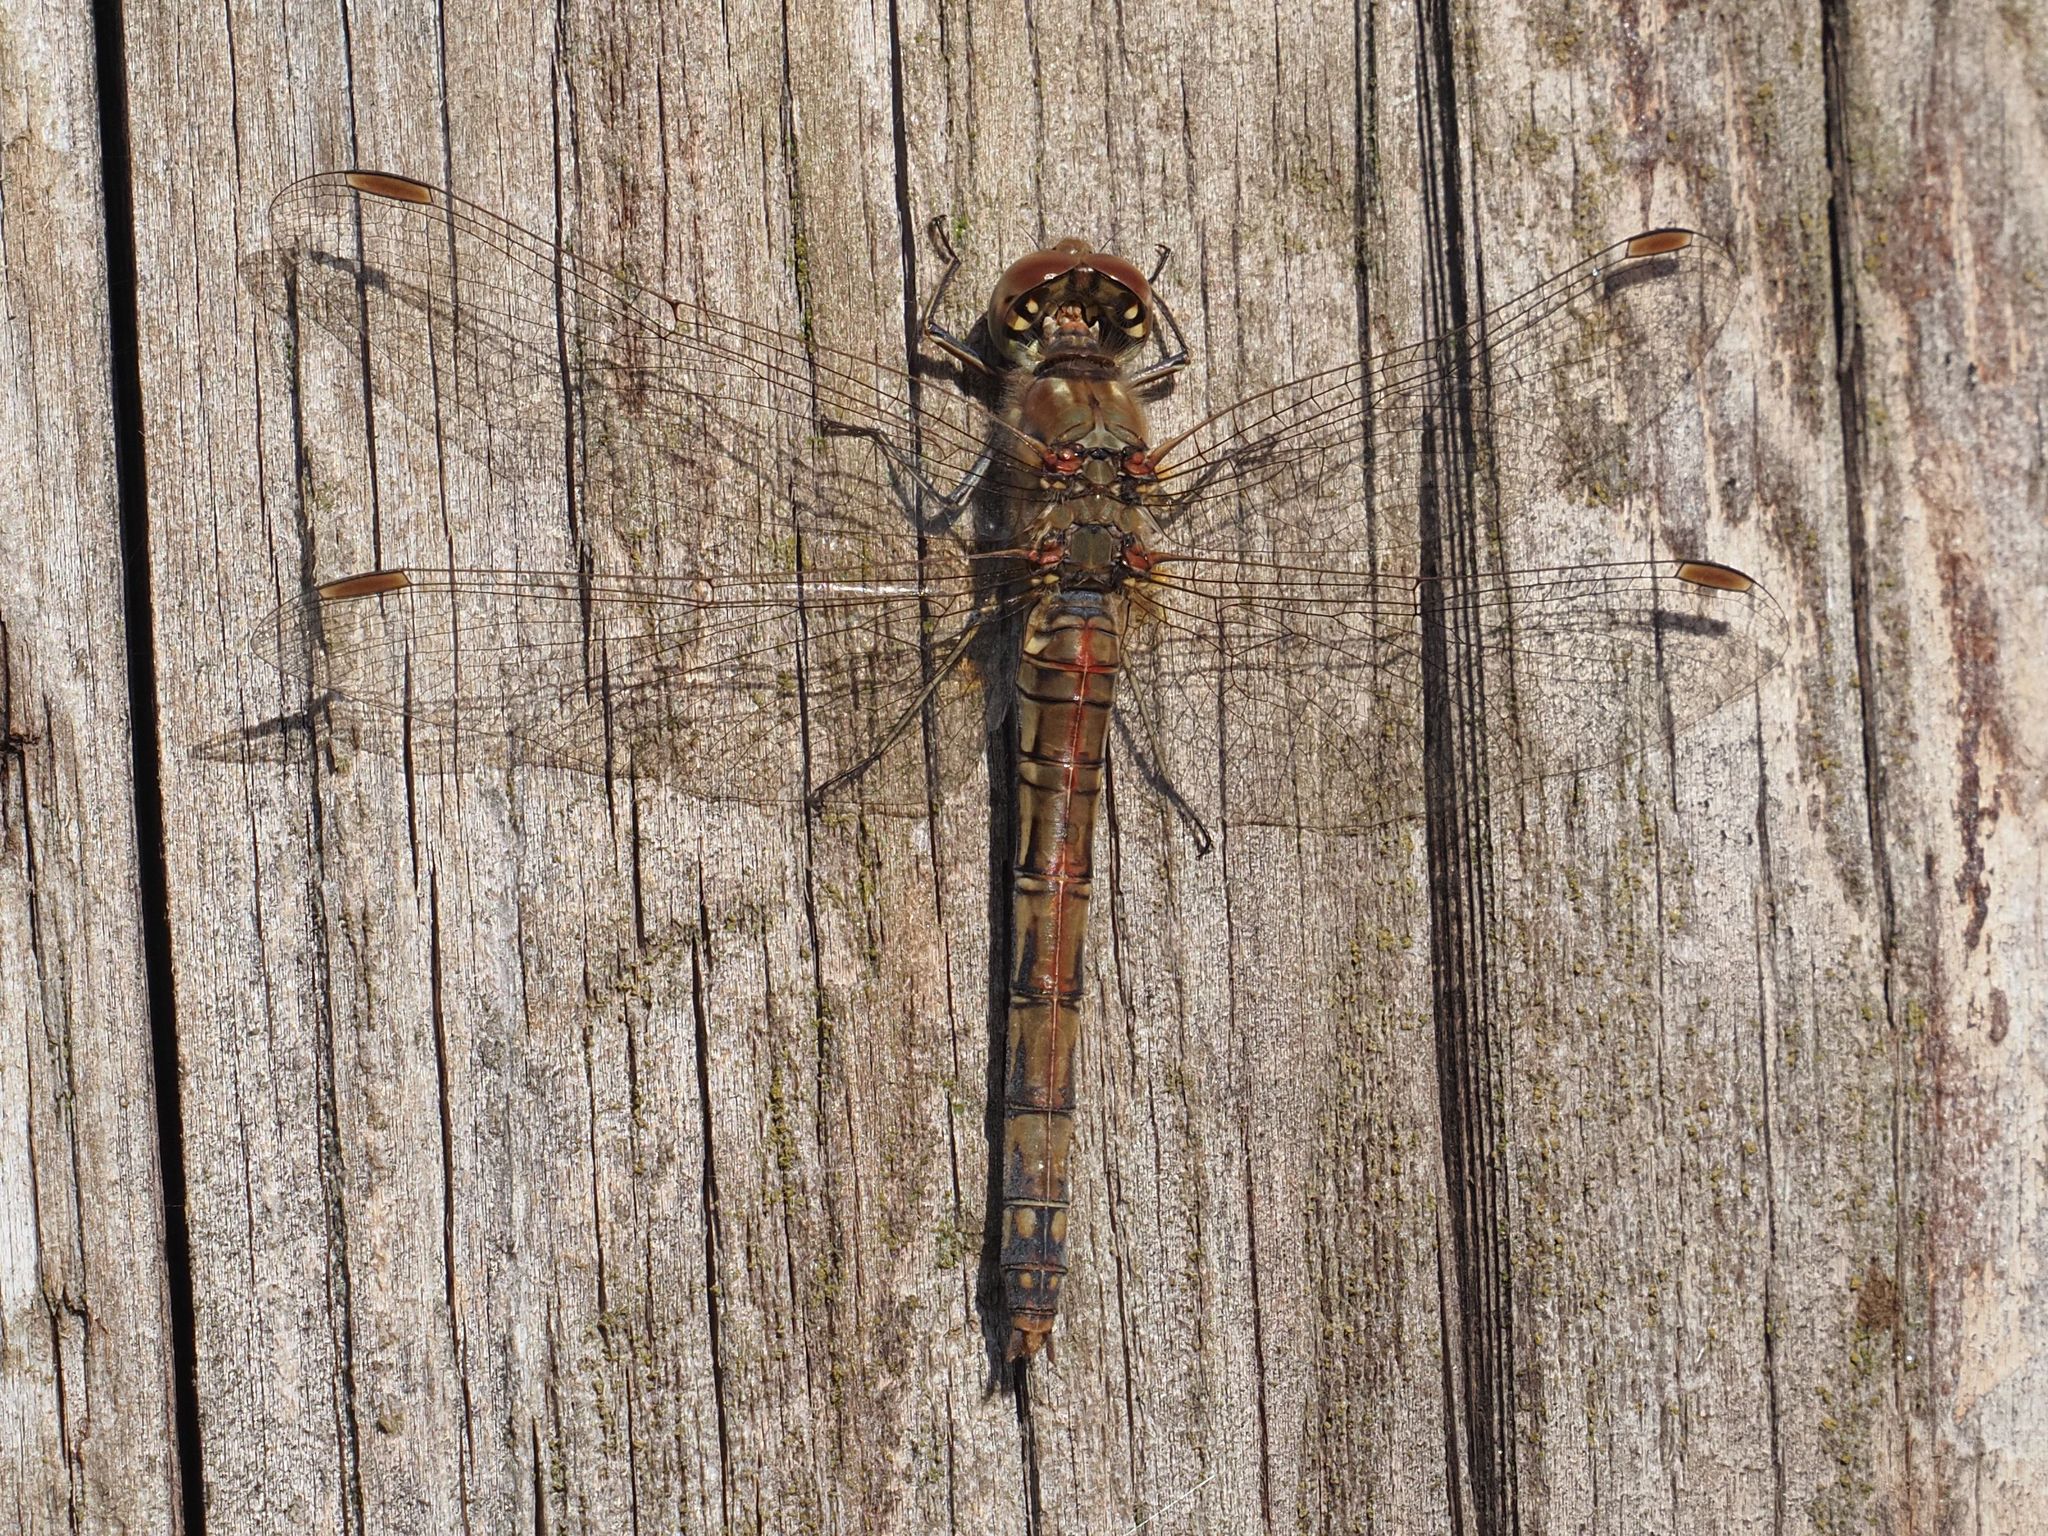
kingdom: Animalia
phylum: Arthropoda
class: Insecta
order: Odonata
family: Libellulidae
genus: Sympetrum
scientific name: Sympetrum striolatum
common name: Common darter
